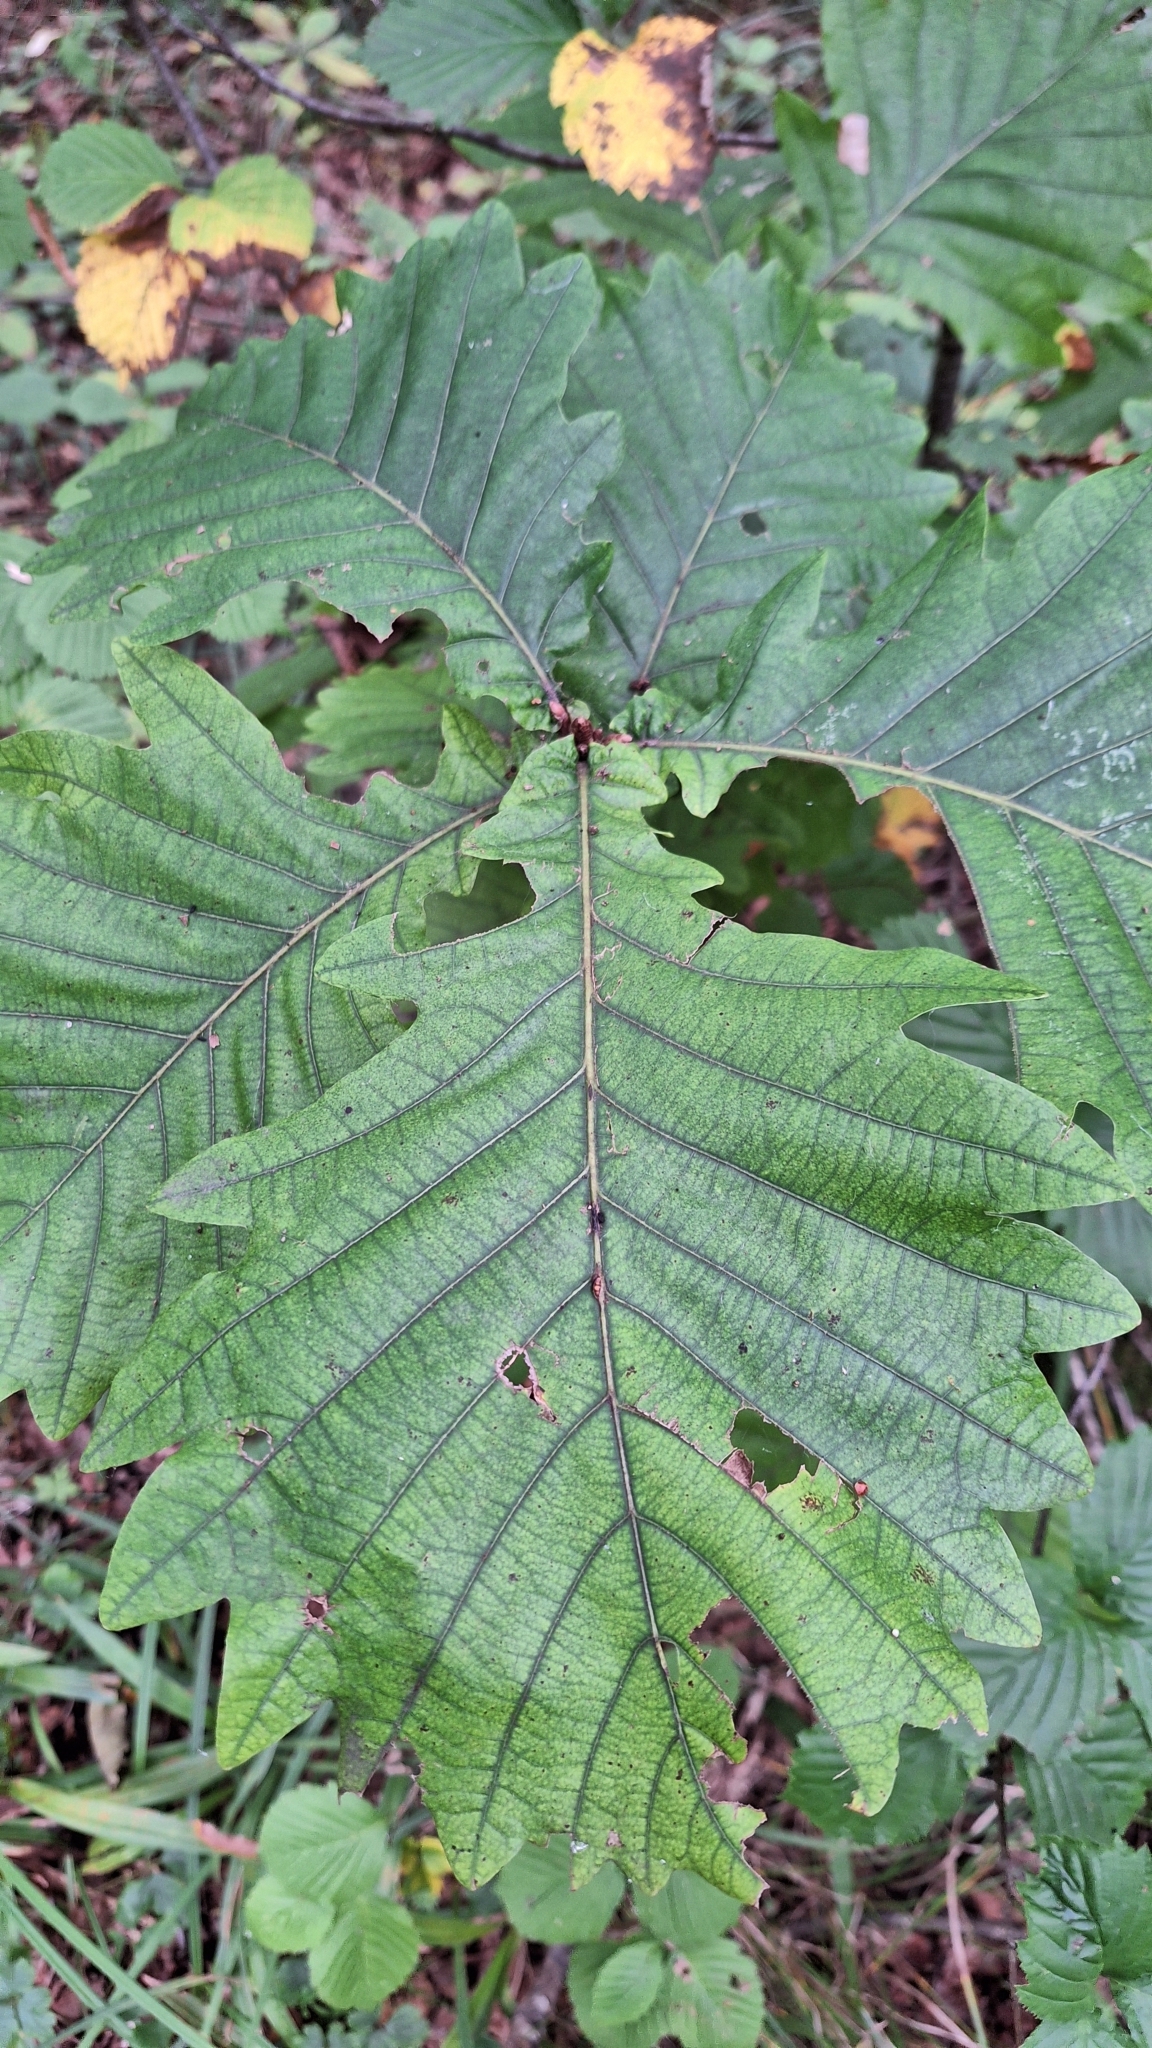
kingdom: Plantae
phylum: Tracheophyta
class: Magnoliopsida
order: Fagales
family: Fagaceae
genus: Quercus
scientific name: Quercus mongolica
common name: Mongolian oak
